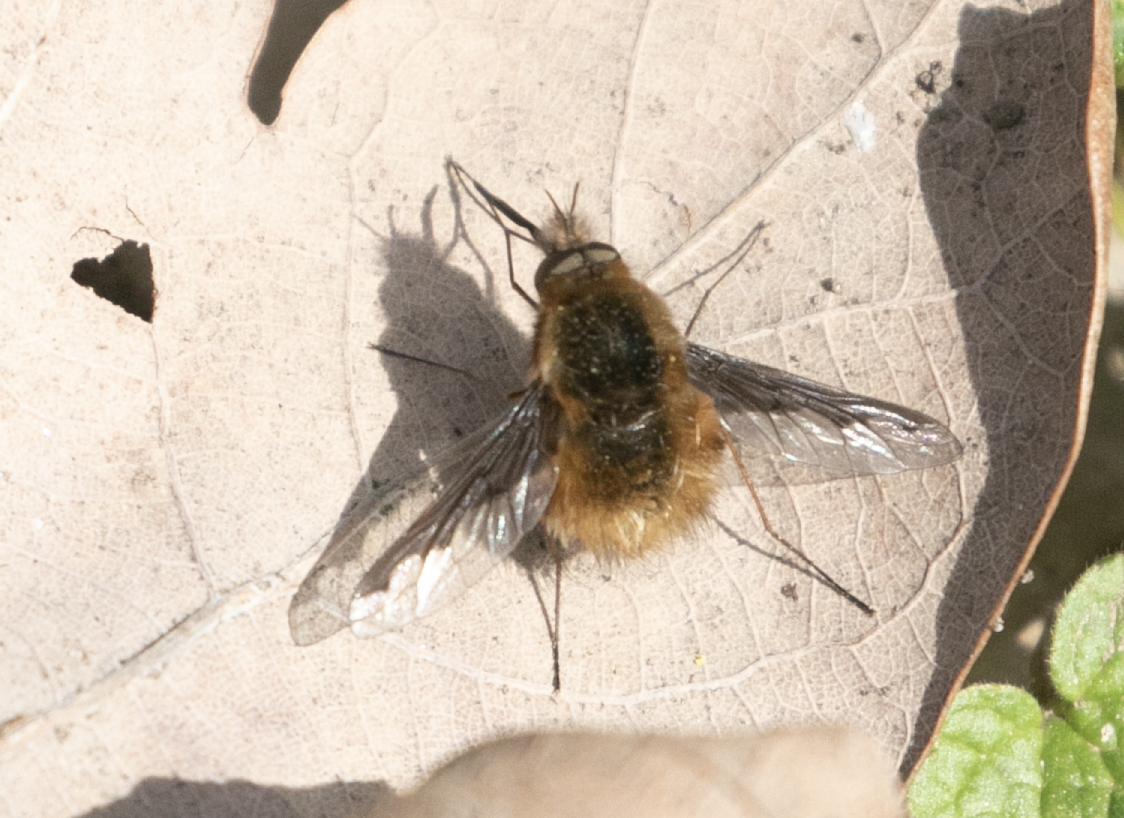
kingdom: Animalia
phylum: Arthropoda
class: Insecta
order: Diptera
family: Bombyliidae
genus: Bombylius
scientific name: Bombylius major
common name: Bee fly
